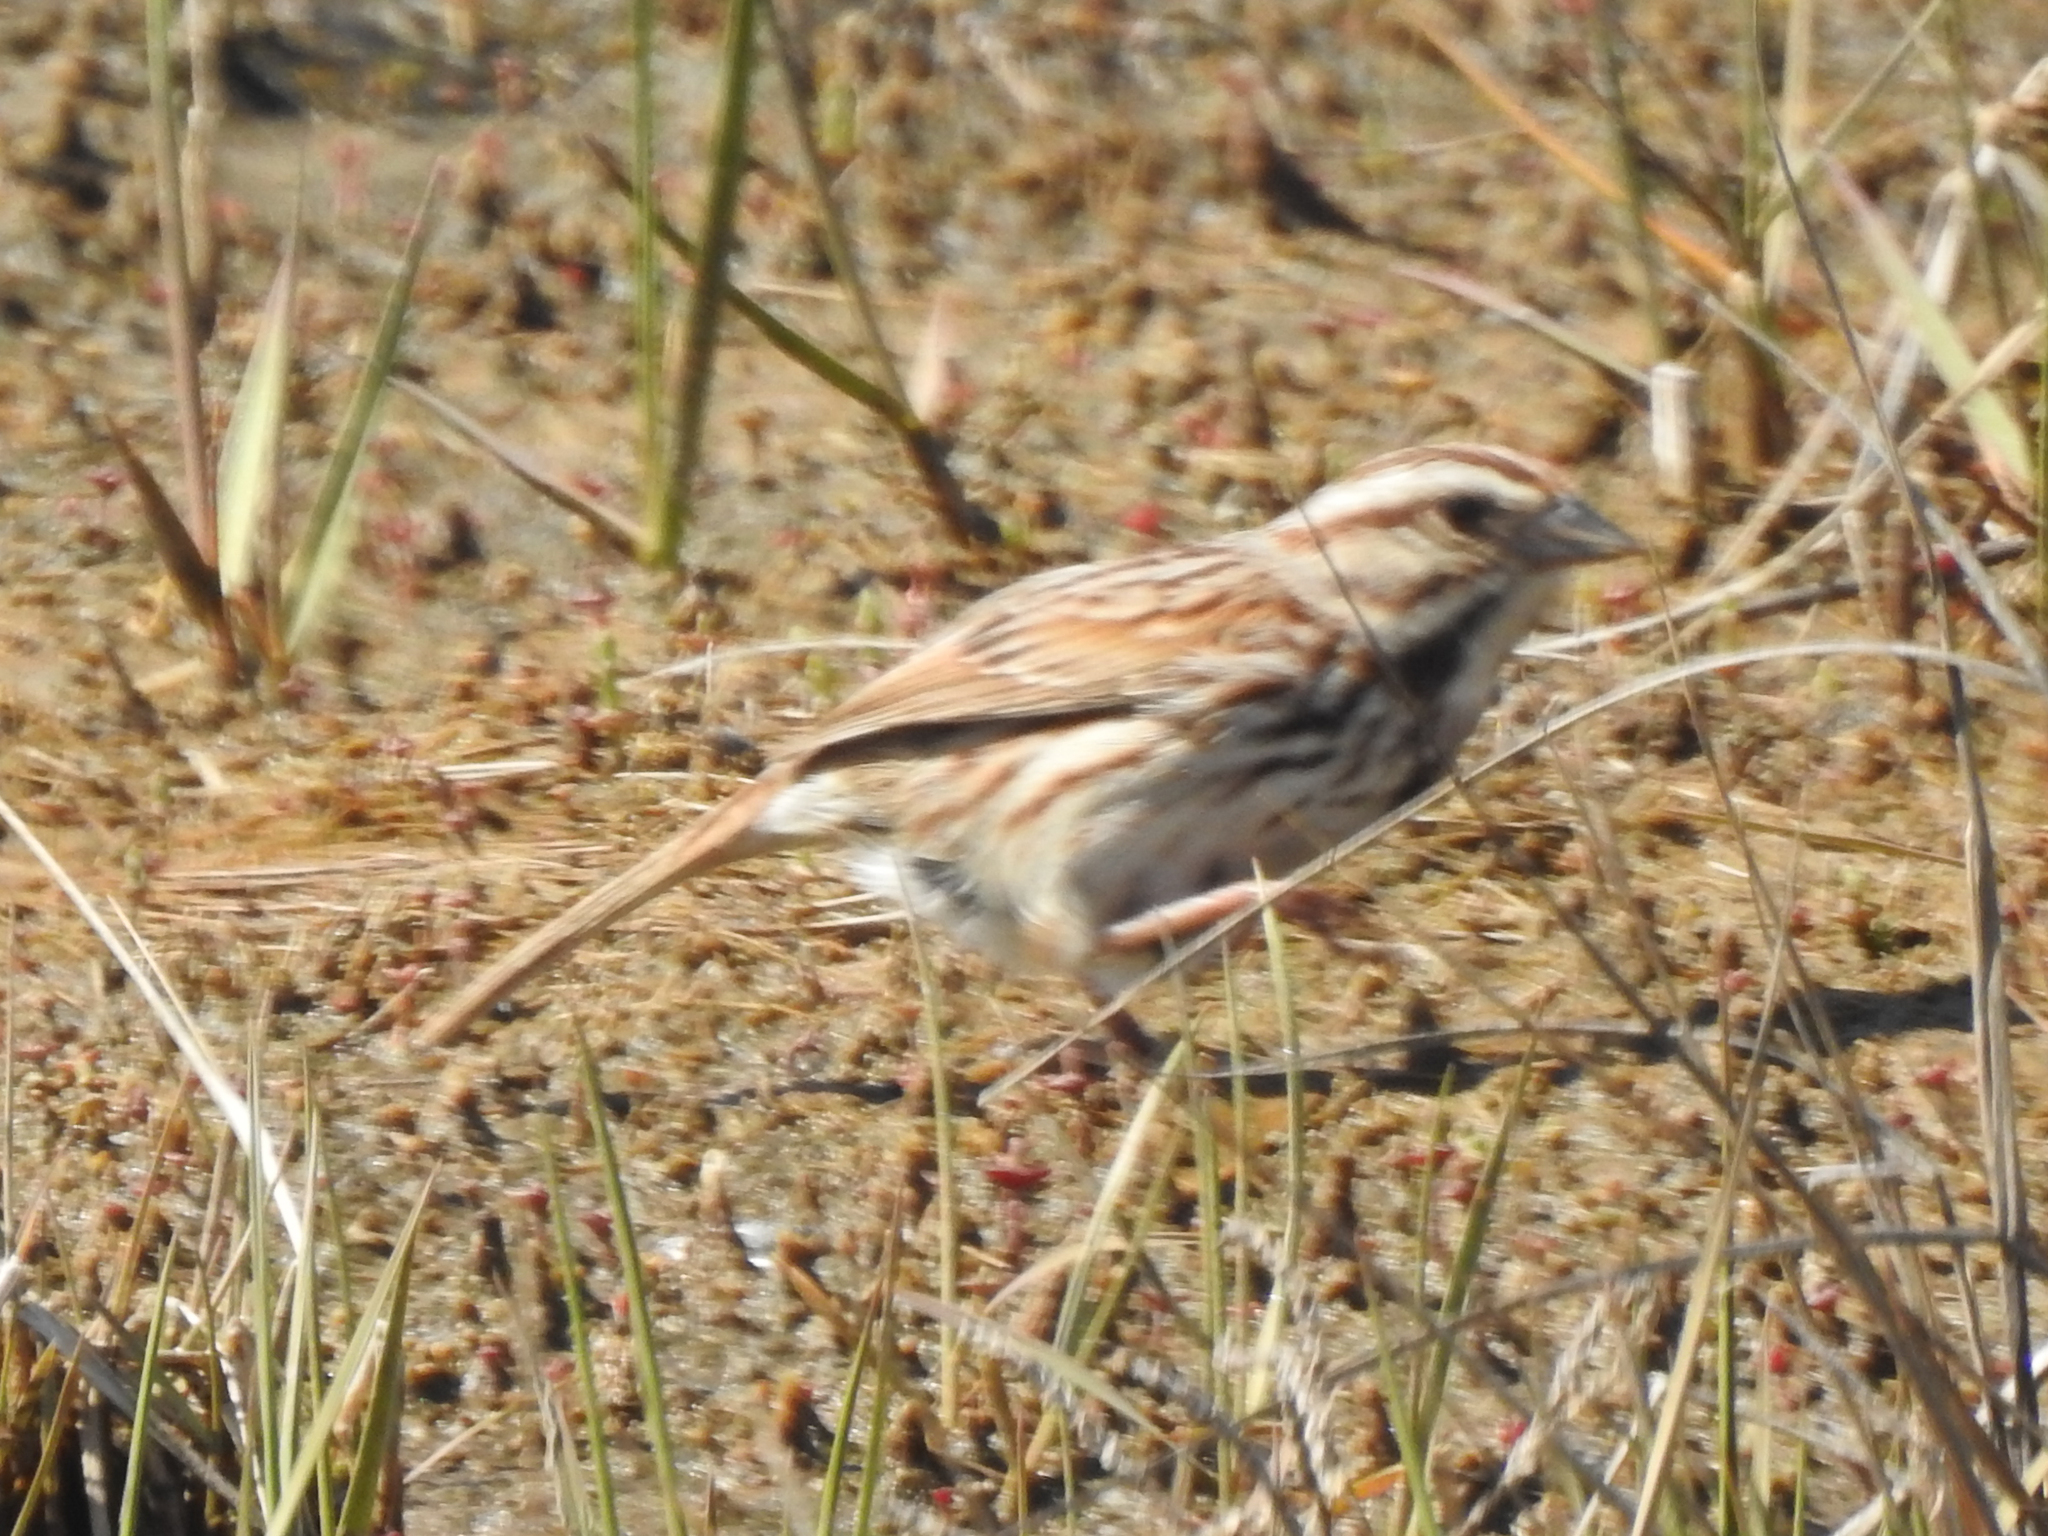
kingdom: Animalia
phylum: Chordata
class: Aves
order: Passeriformes
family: Passerellidae
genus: Melospiza
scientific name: Melospiza melodia
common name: Song sparrow
